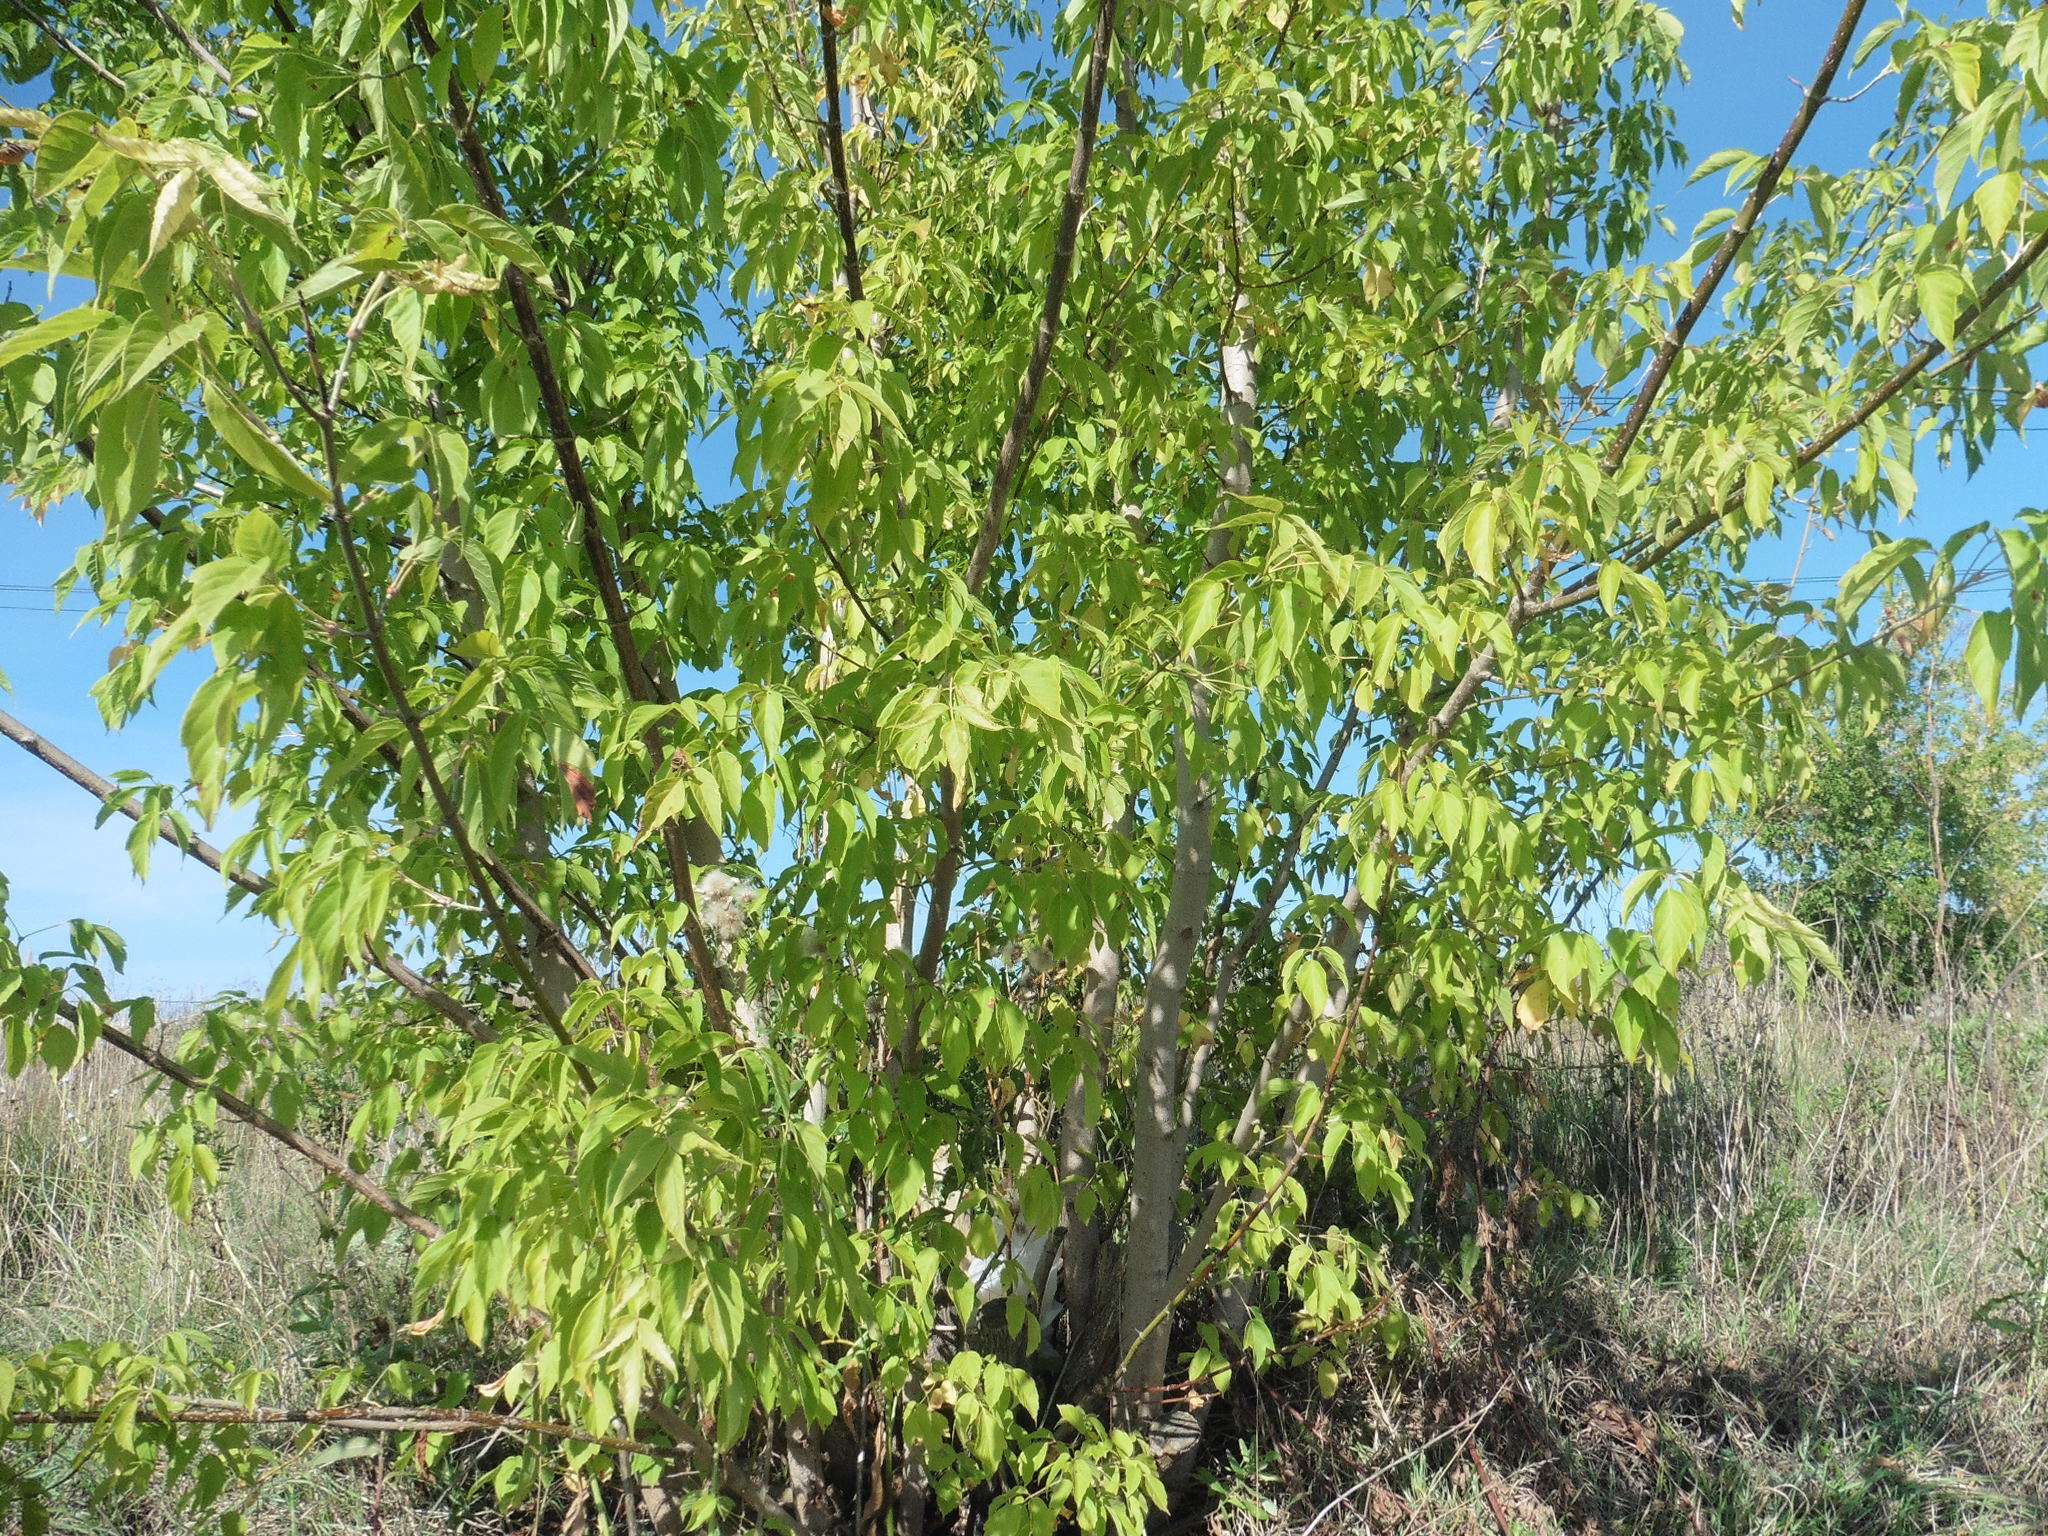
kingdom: Plantae
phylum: Tracheophyta
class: Magnoliopsida
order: Sapindales
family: Sapindaceae
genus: Acer
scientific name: Acer negundo
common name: Ashleaf maple
